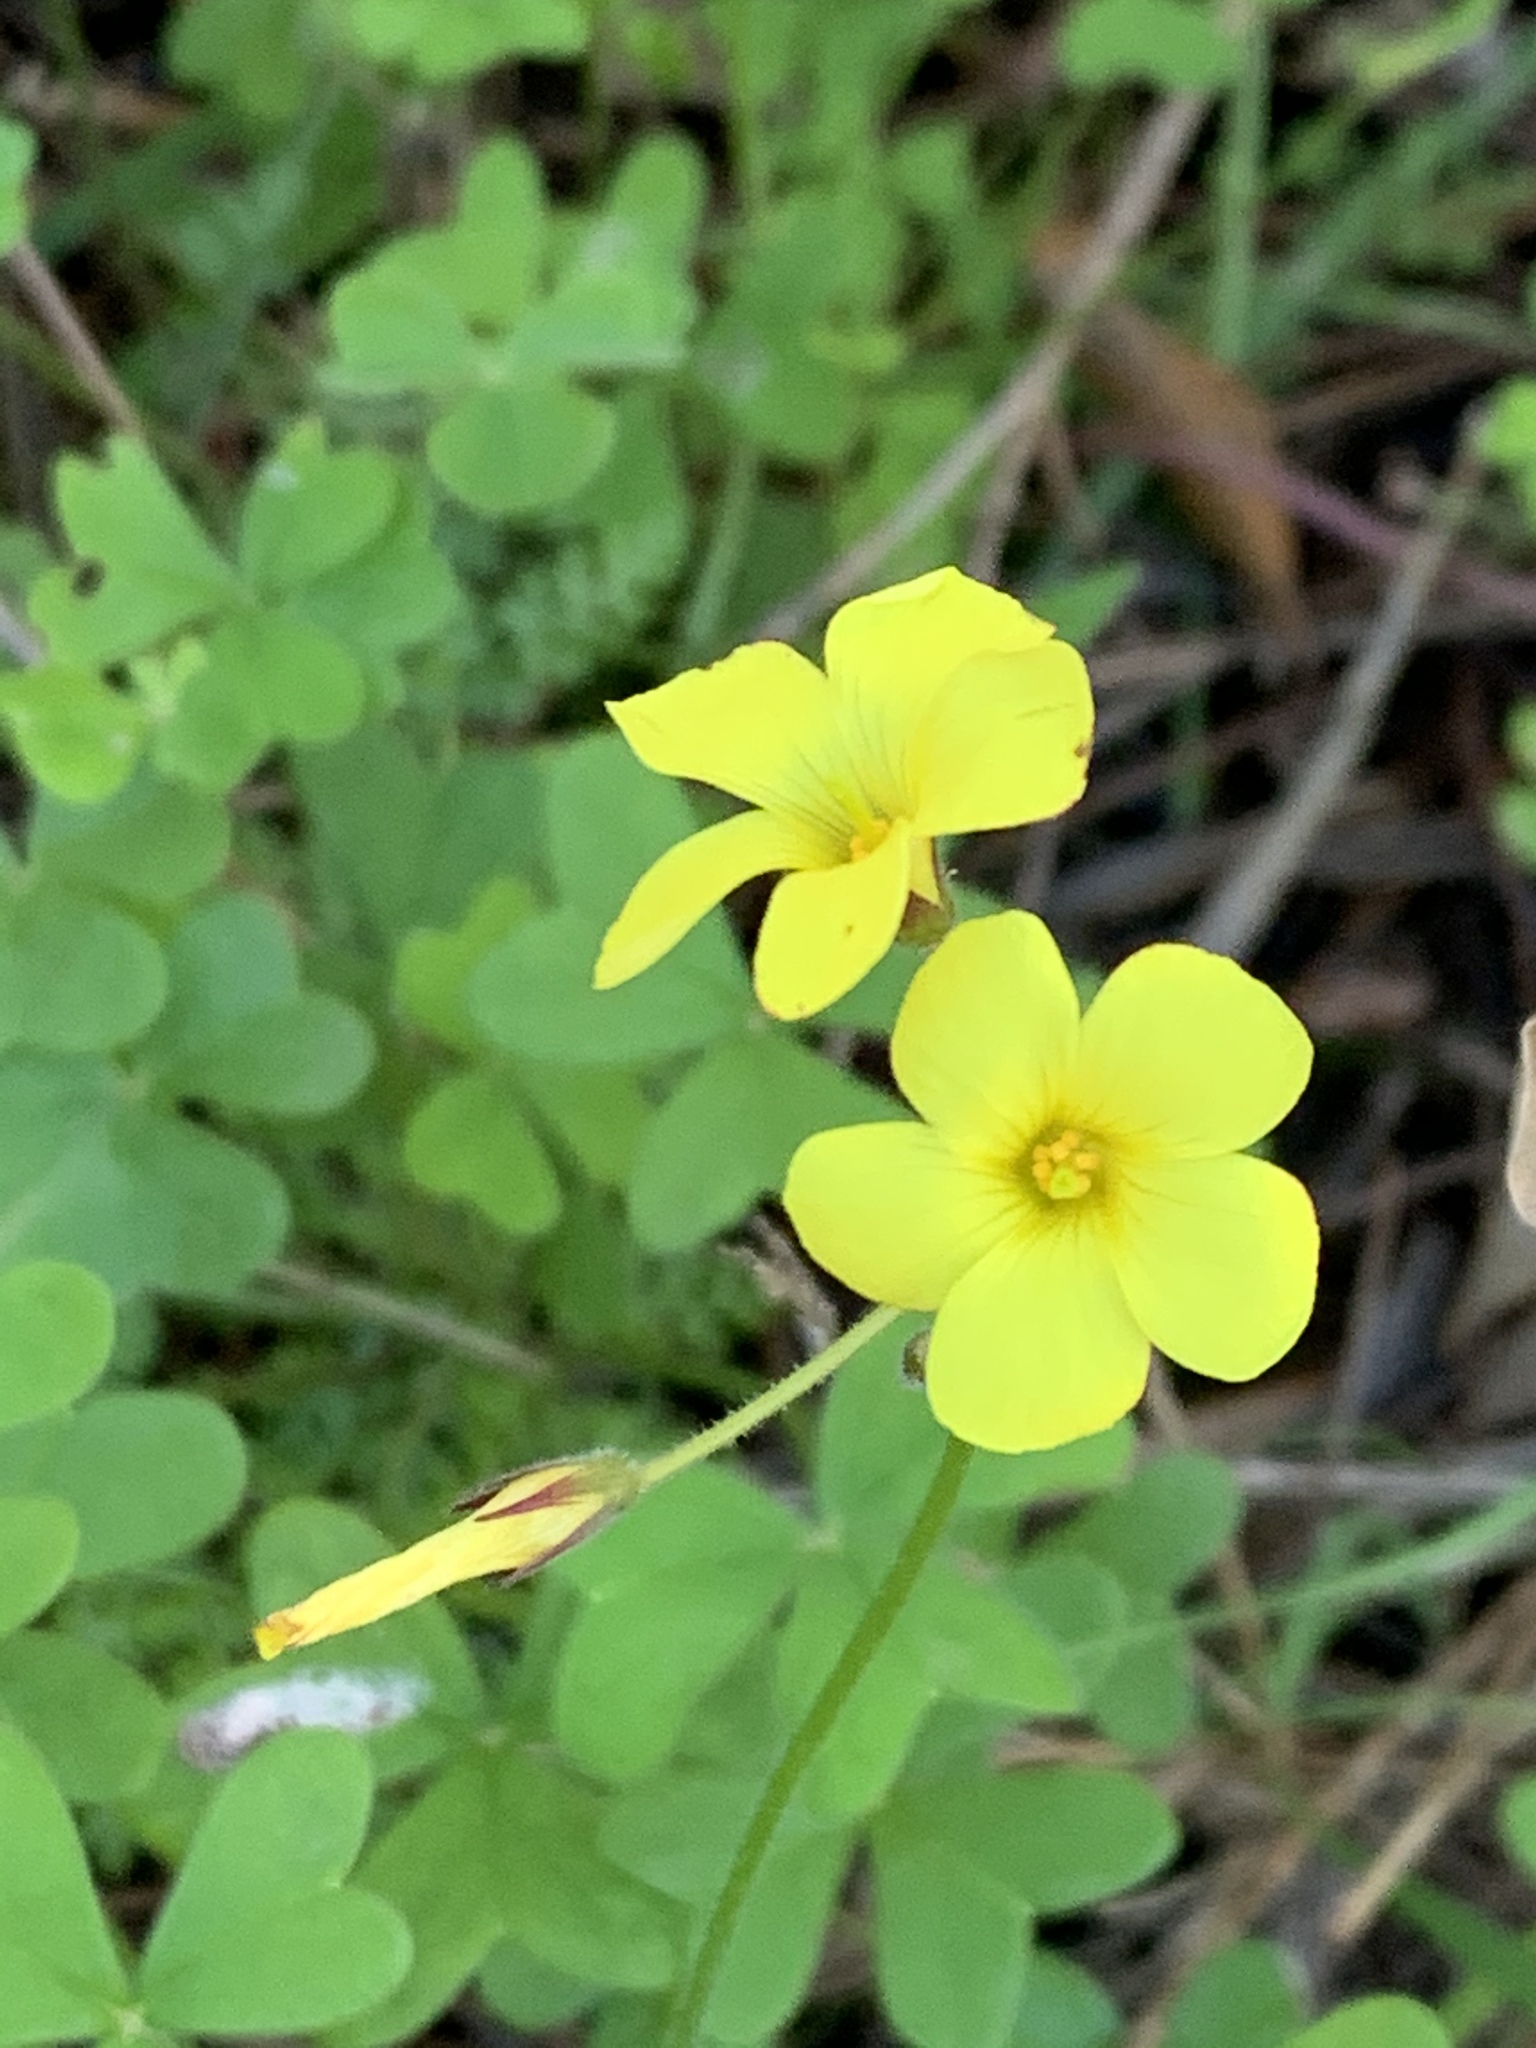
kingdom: Plantae
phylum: Tracheophyta
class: Magnoliopsida
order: Oxalidales
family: Oxalidaceae
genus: Oxalis
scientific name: Oxalis pes-caprae
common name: Bermuda-buttercup
